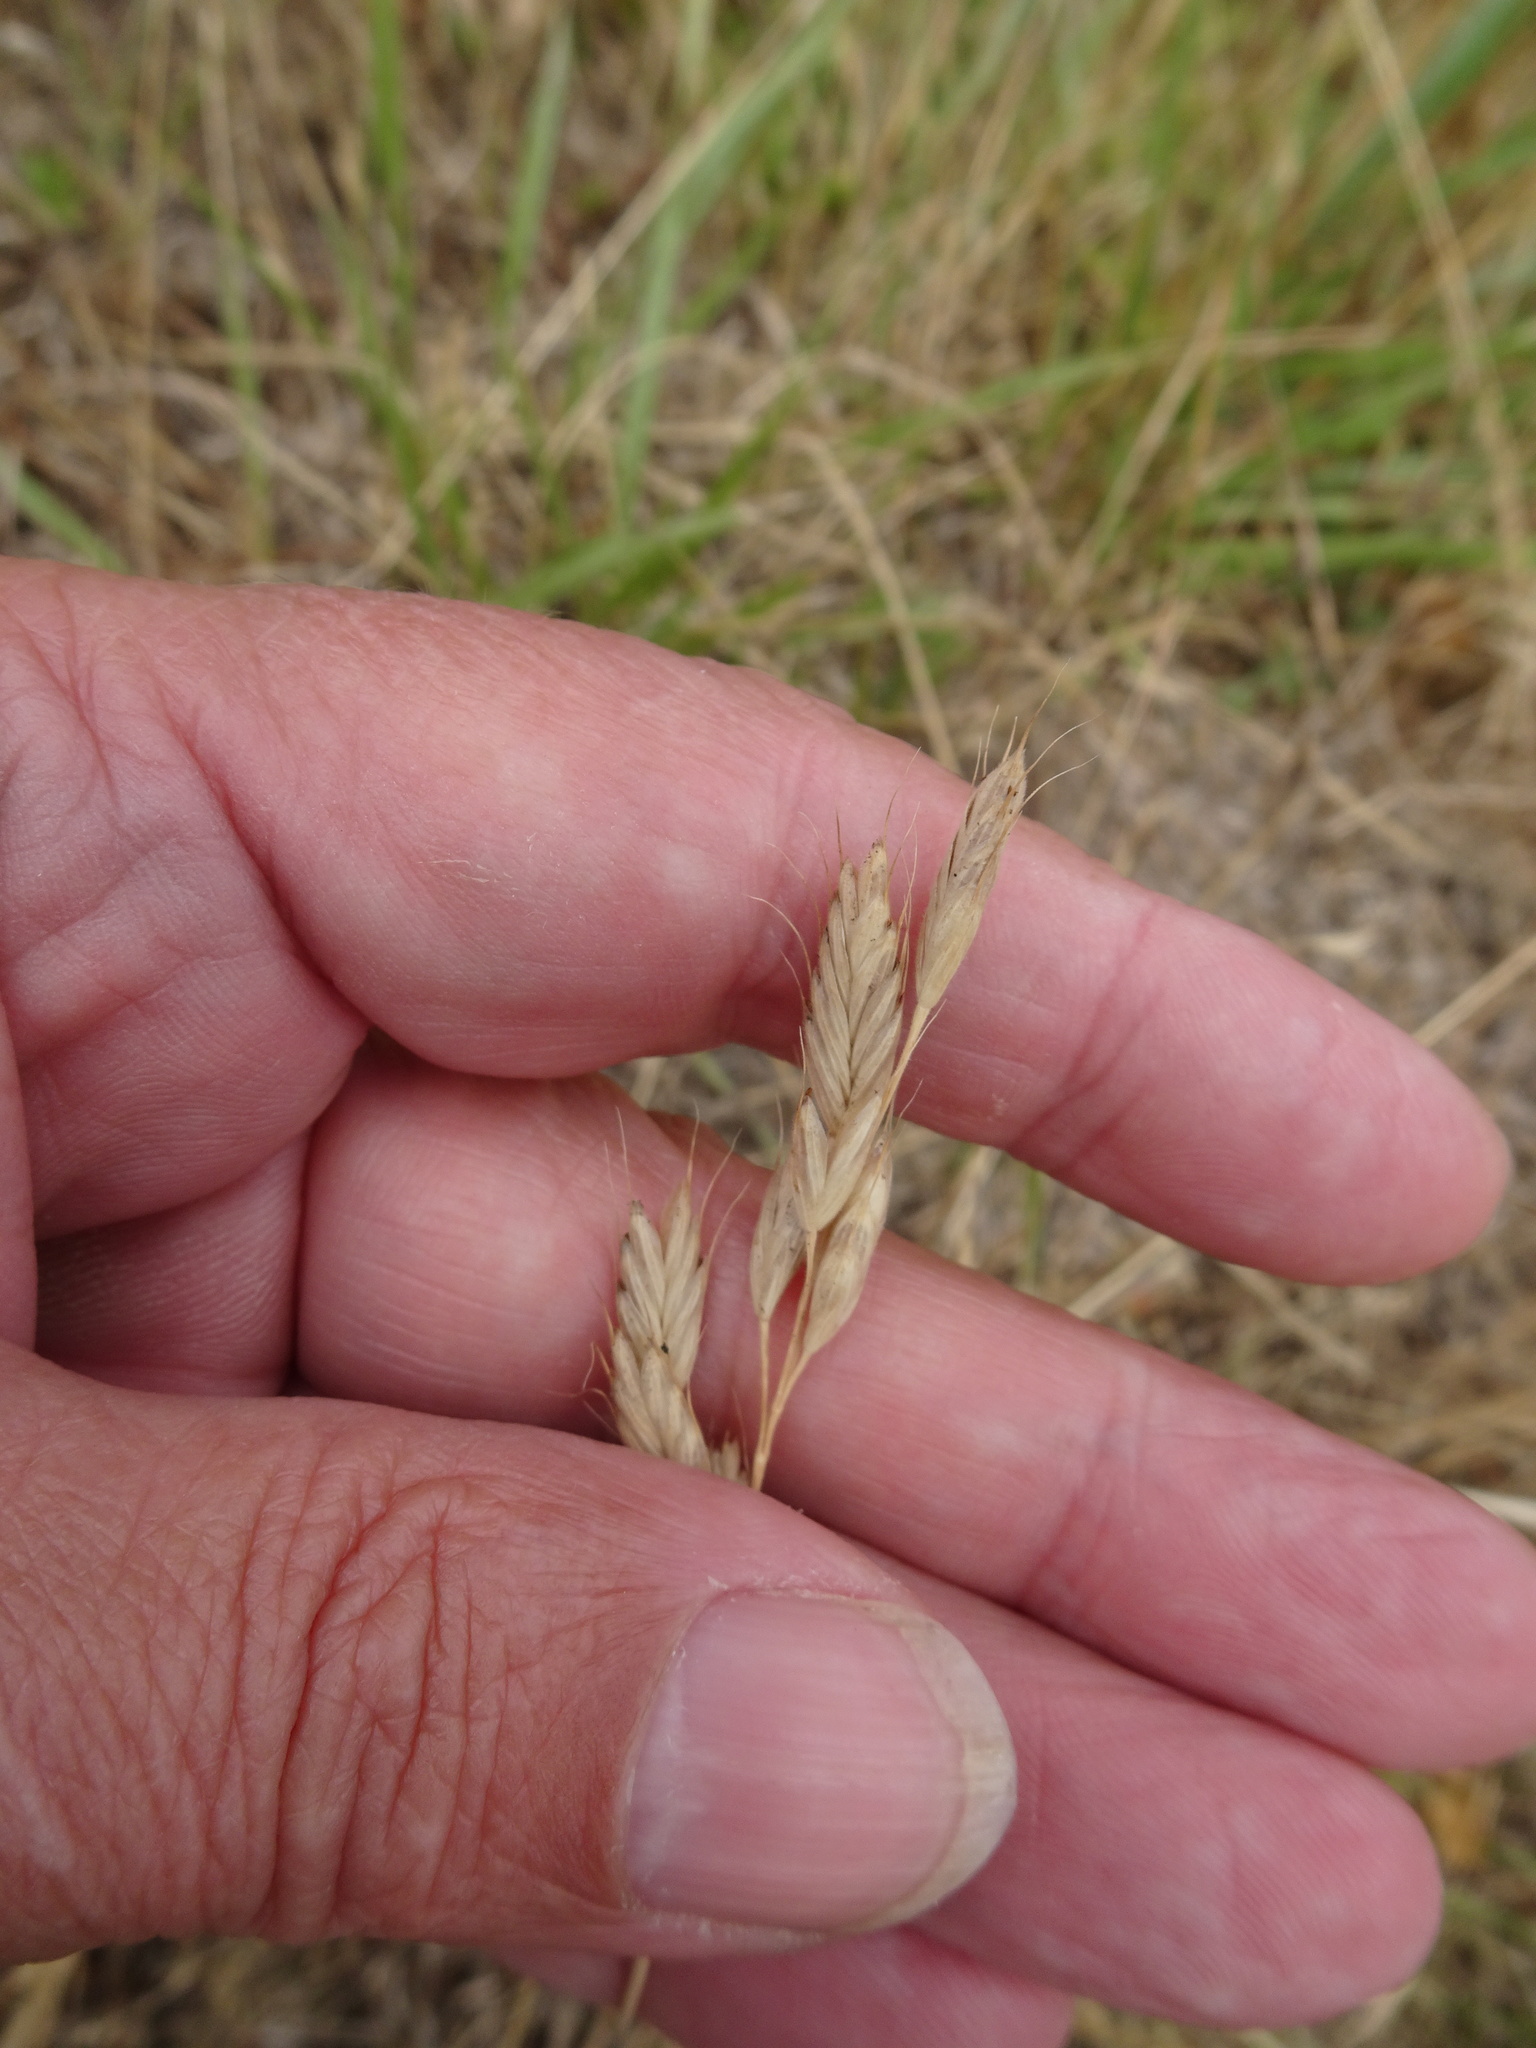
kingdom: Plantae
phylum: Tracheophyta
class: Liliopsida
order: Poales
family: Poaceae
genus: Bromus
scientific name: Bromus commutatus
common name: Meadow brome
